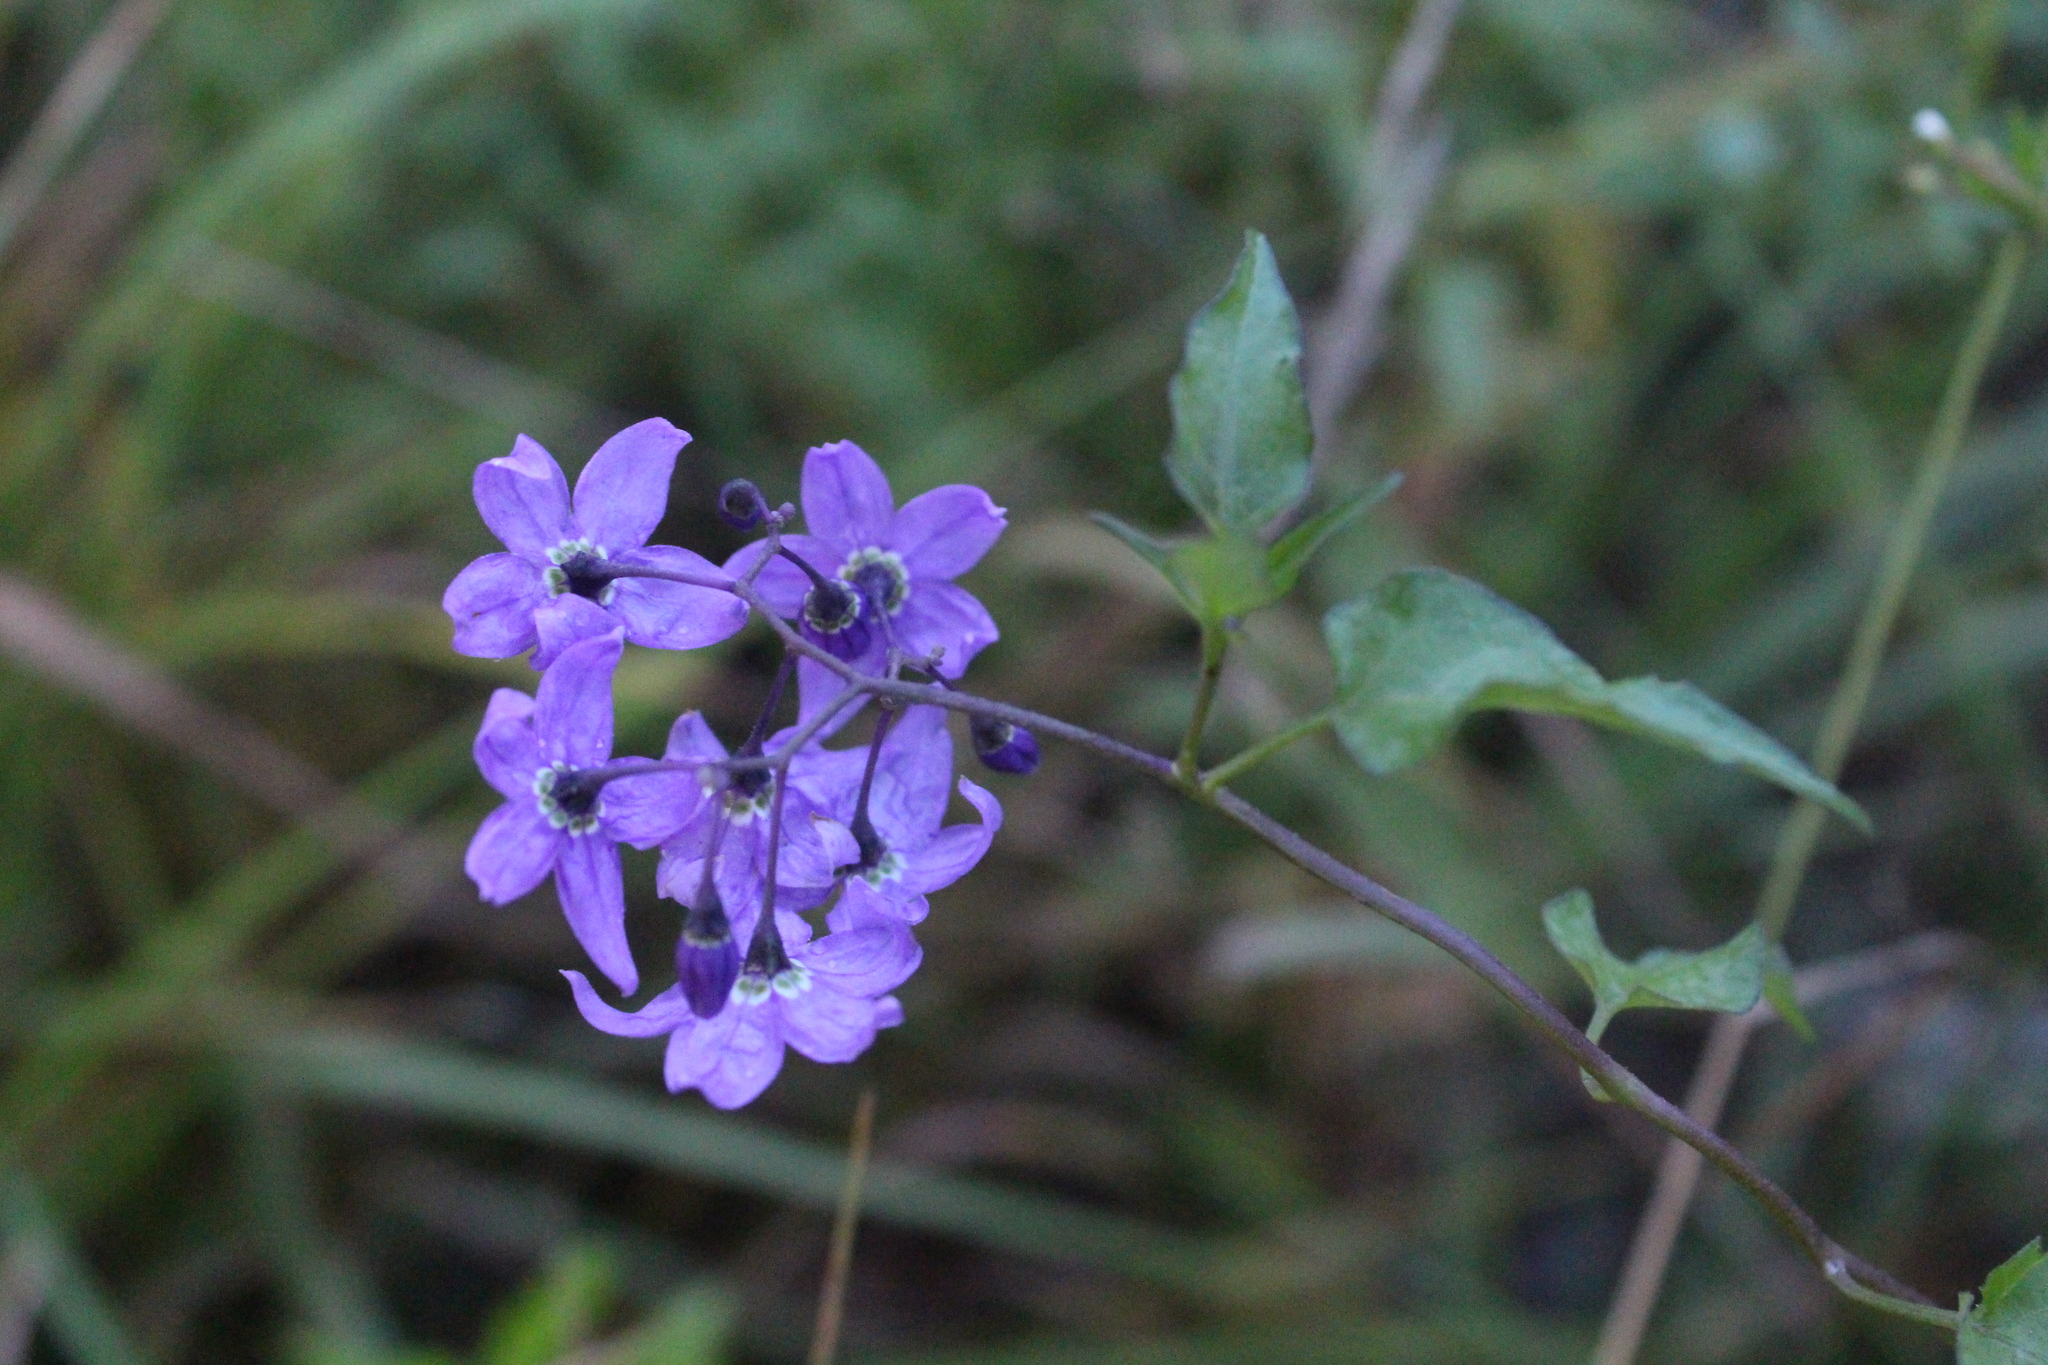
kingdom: Plantae
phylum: Tracheophyta
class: Magnoliopsida
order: Solanales
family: Solanaceae
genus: Solanum
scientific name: Solanum dulcamara
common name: Climbing nightshade
